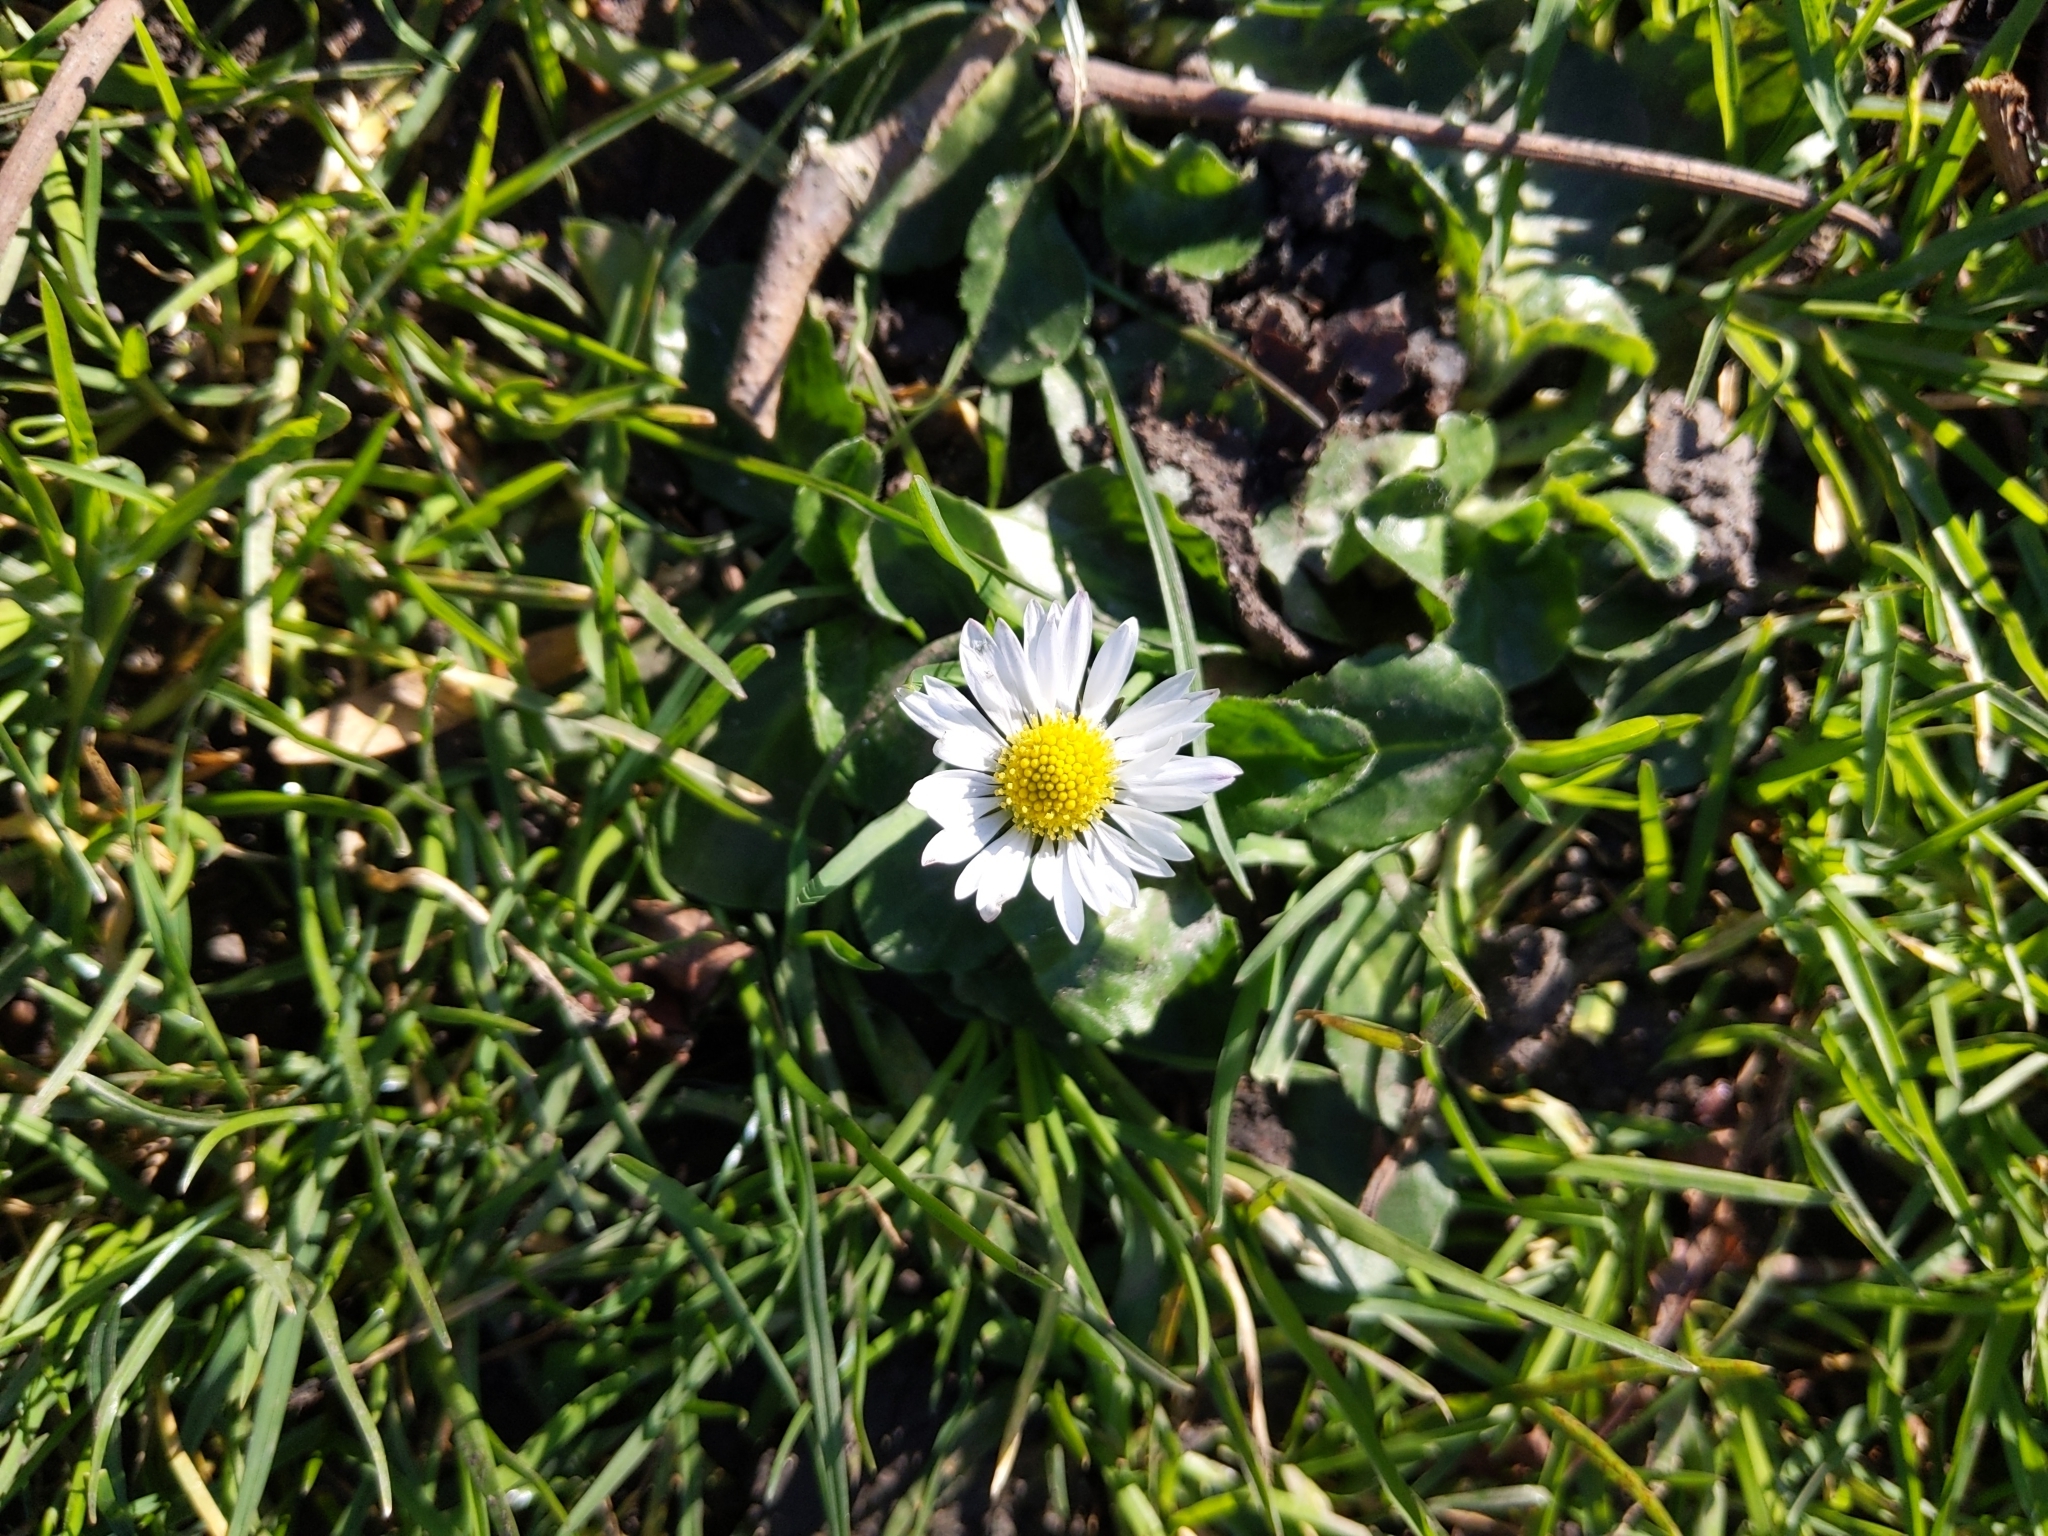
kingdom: Plantae
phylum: Tracheophyta
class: Magnoliopsida
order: Asterales
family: Asteraceae
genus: Bellis
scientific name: Bellis perennis
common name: Lawndaisy
